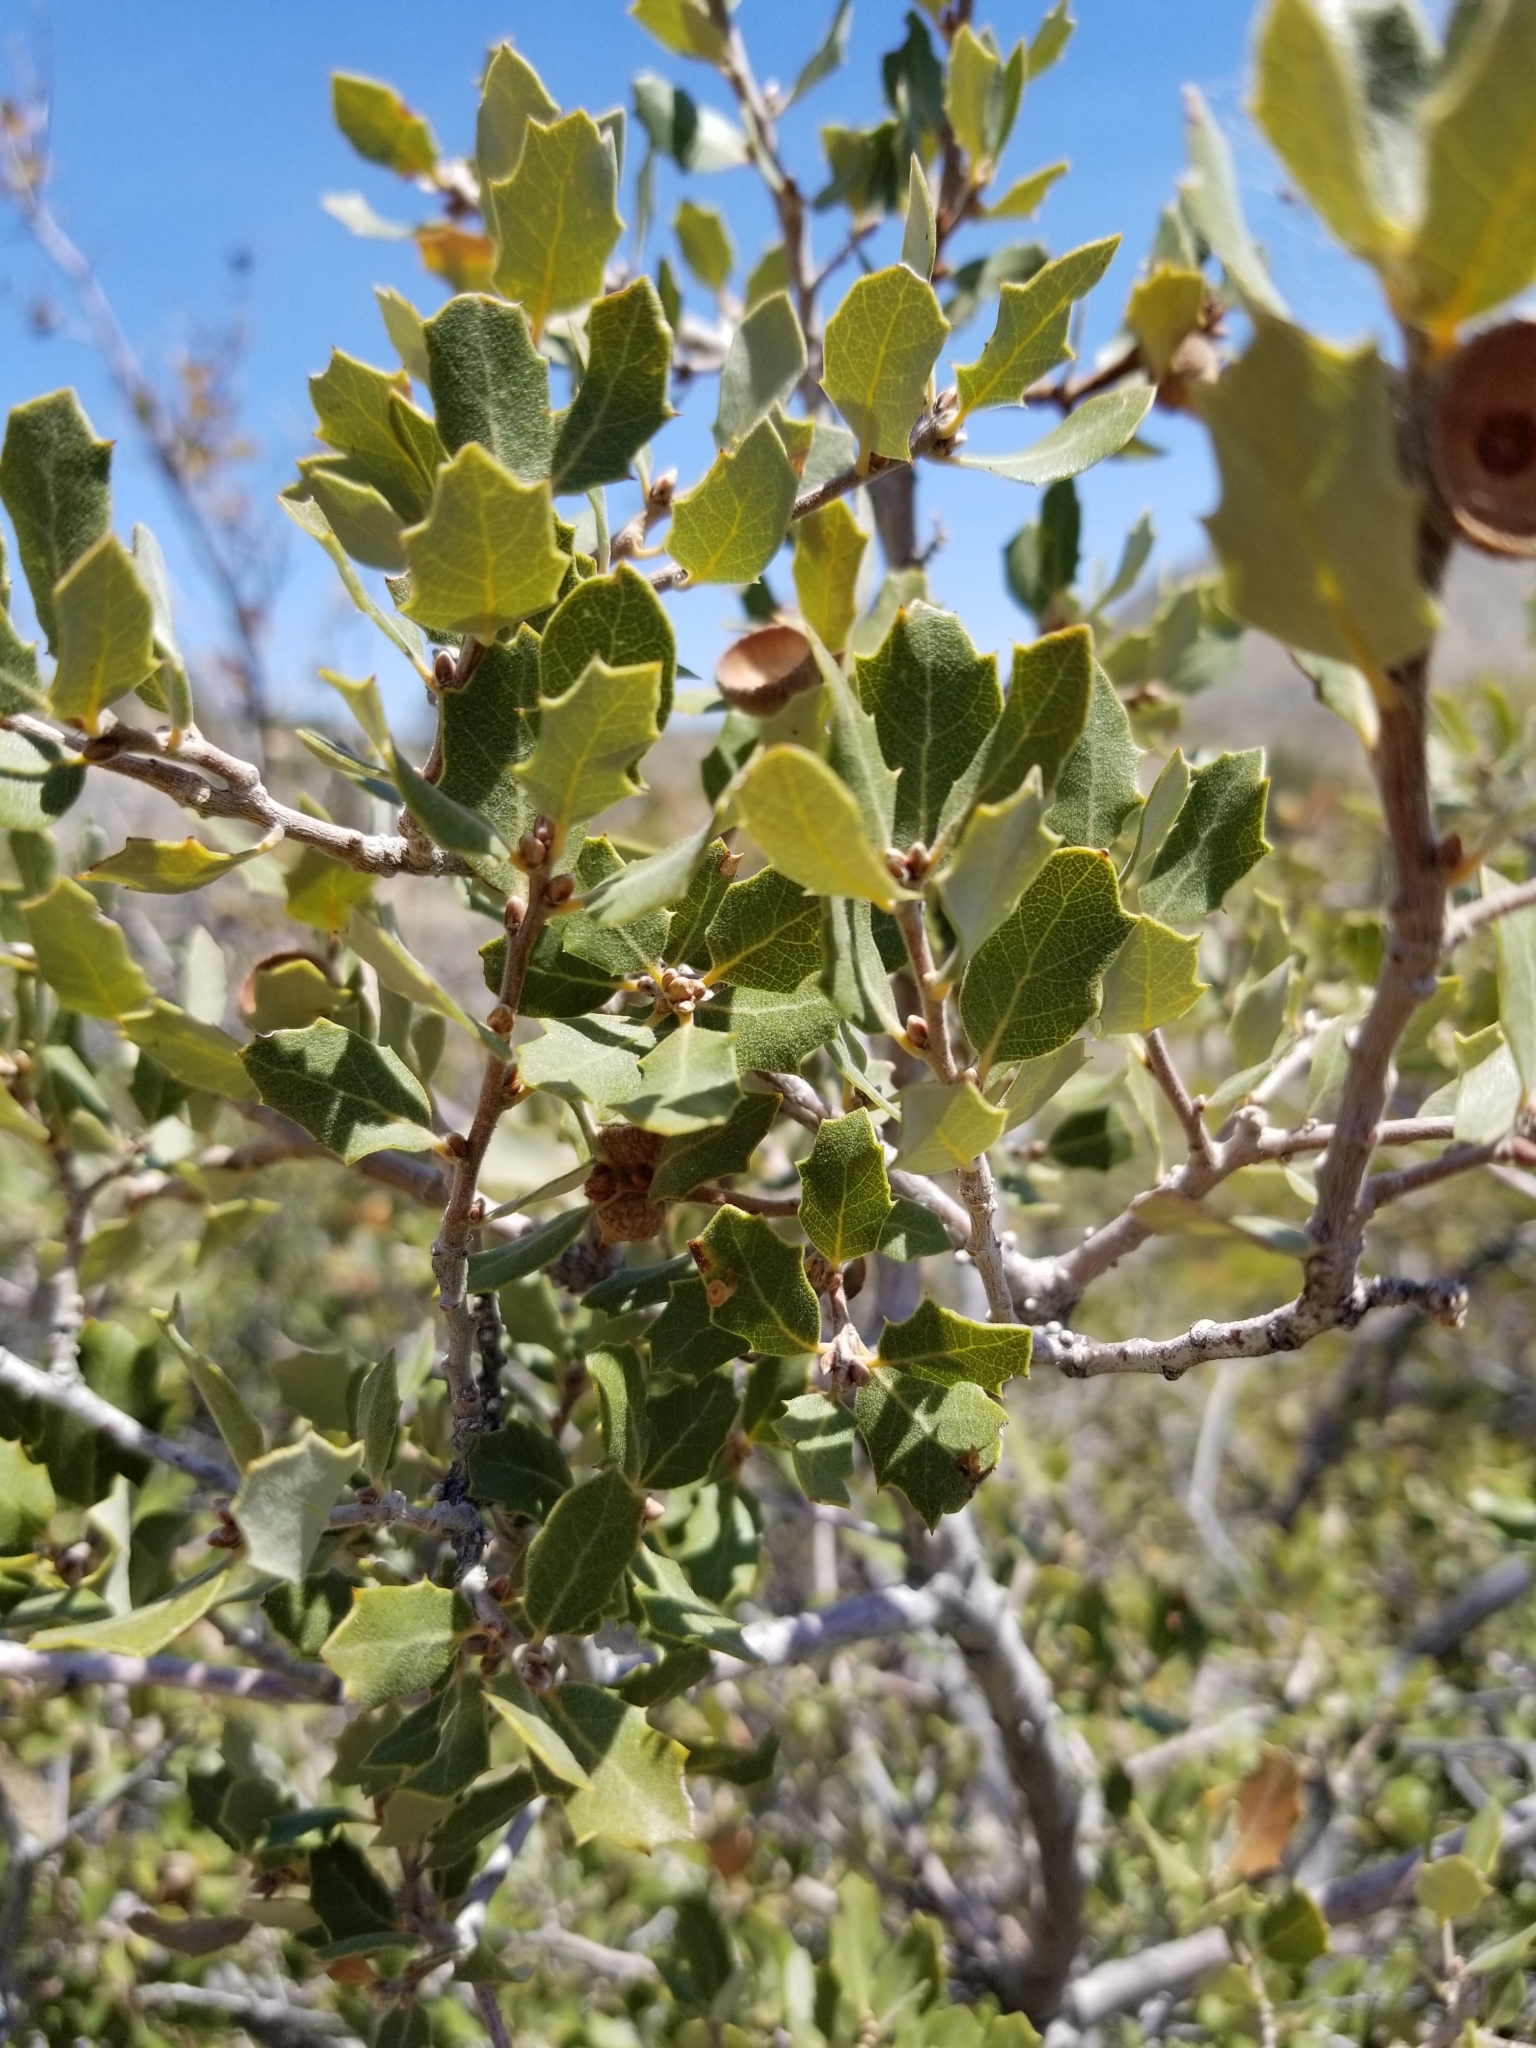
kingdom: Plantae
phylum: Tracheophyta
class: Magnoliopsida
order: Fagales
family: Fagaceae
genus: Quercus
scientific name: Quercus cornelius-mulleri
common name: Muller oak
